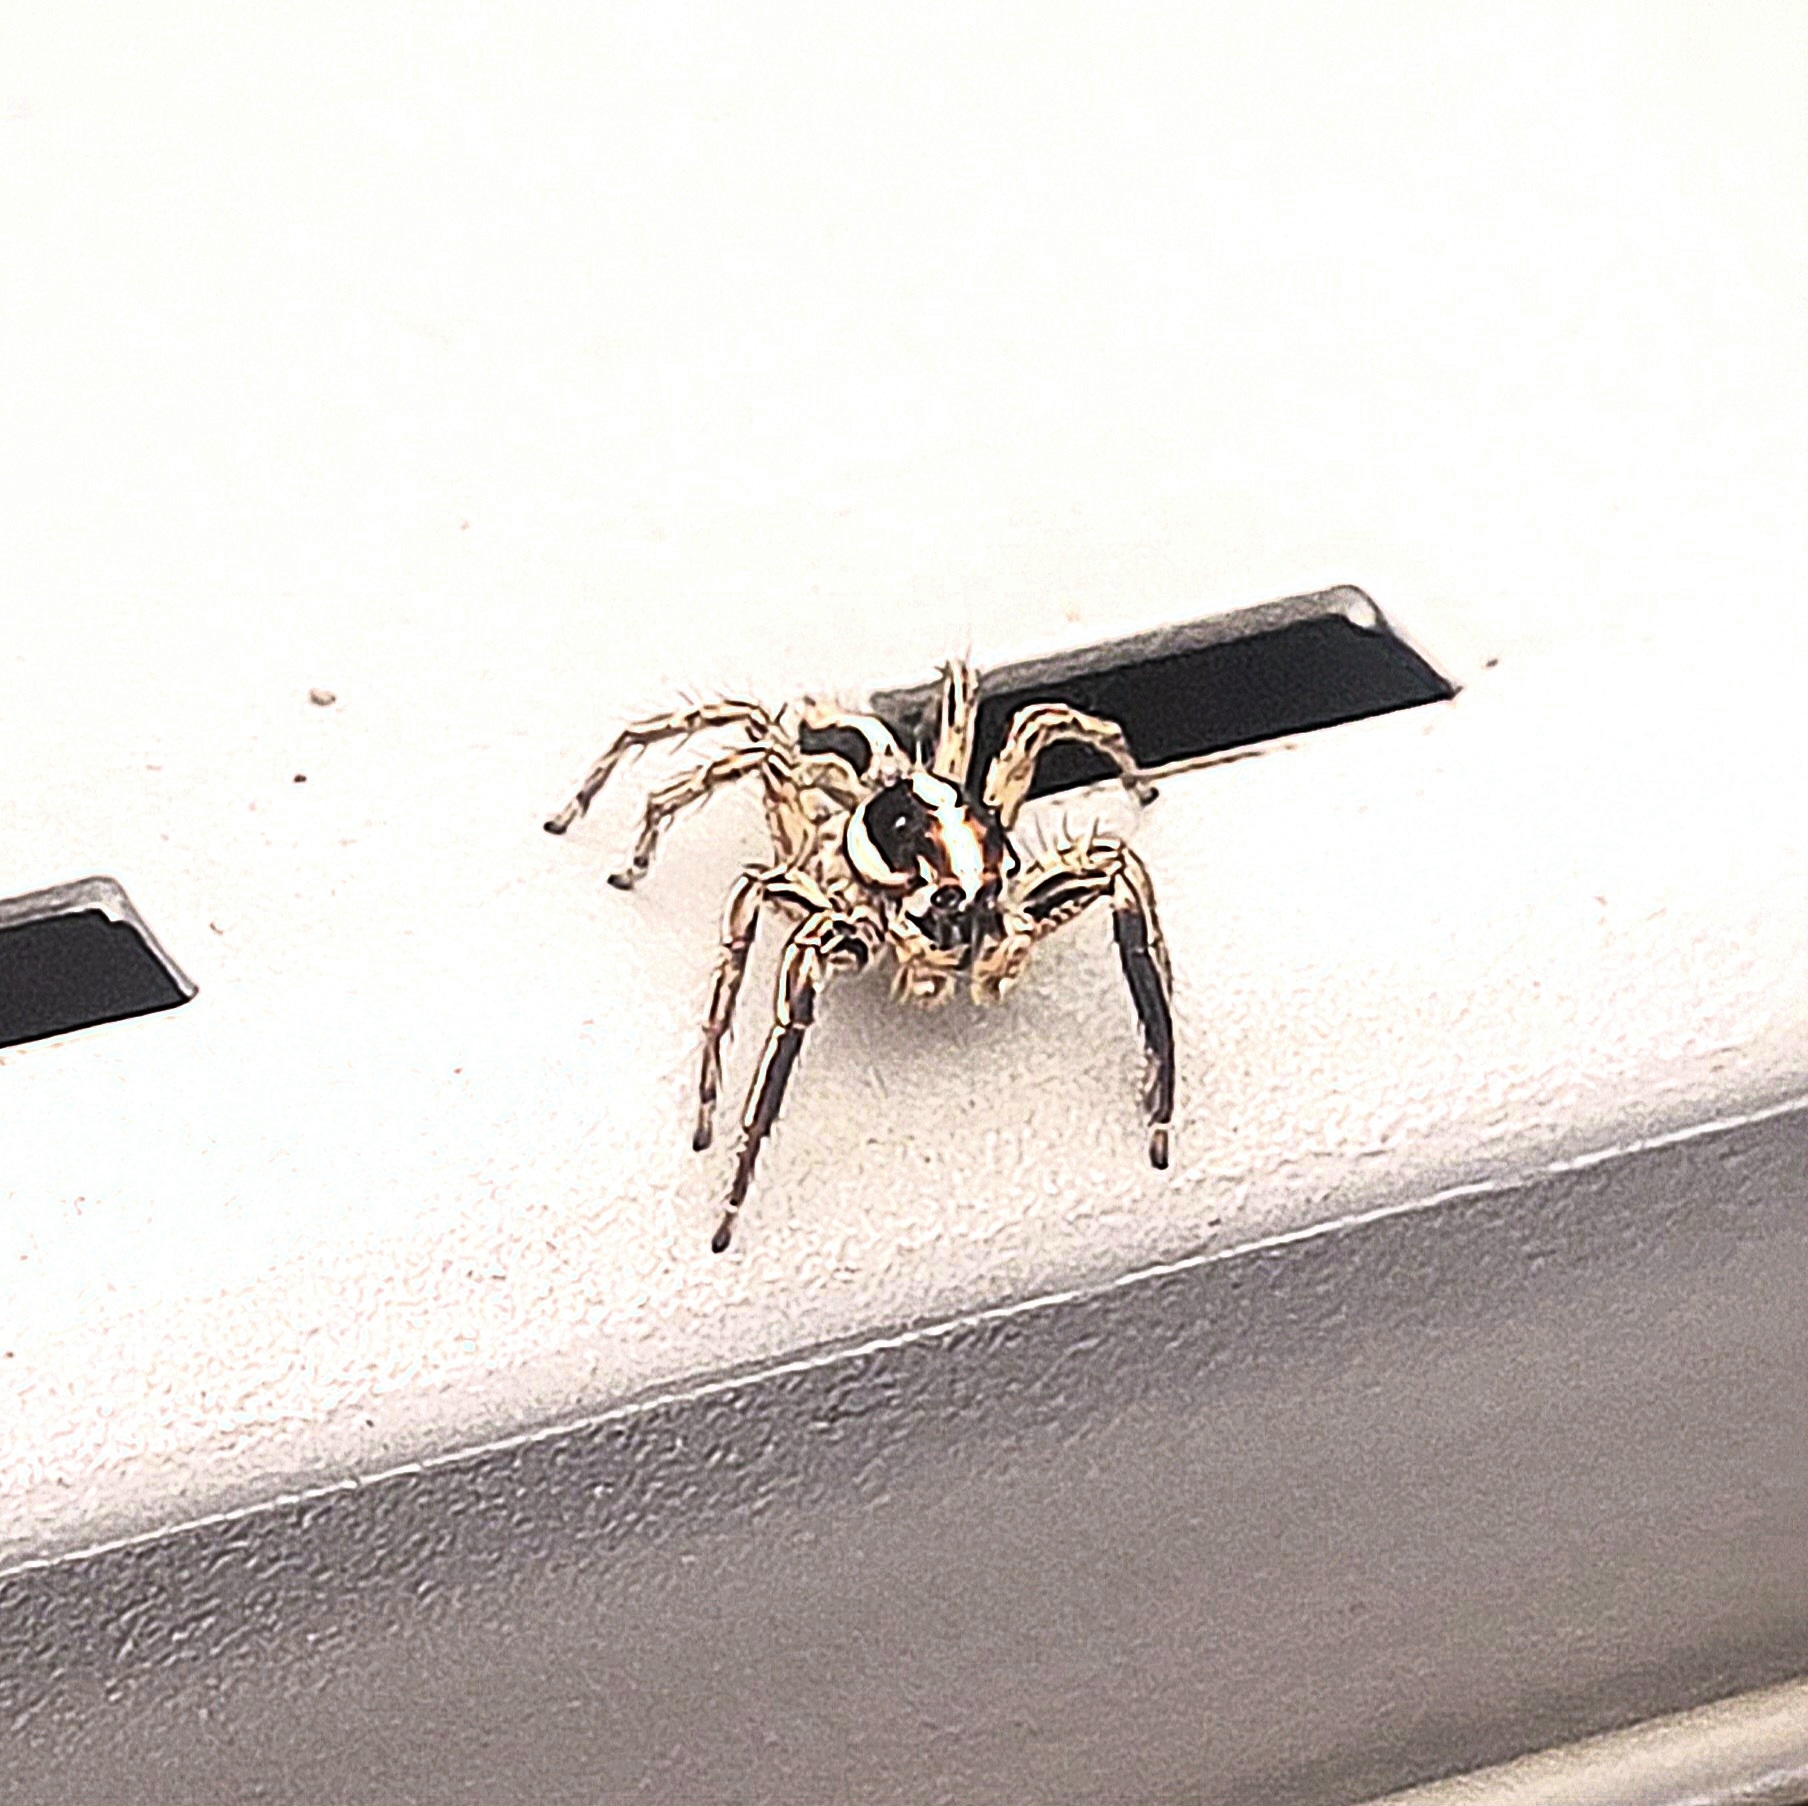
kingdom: Animalia
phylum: Arthropoda
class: Arachnida
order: Araneae
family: Salticidae
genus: Plexippus
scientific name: Plexippus paykulli
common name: Pantropical jumper
